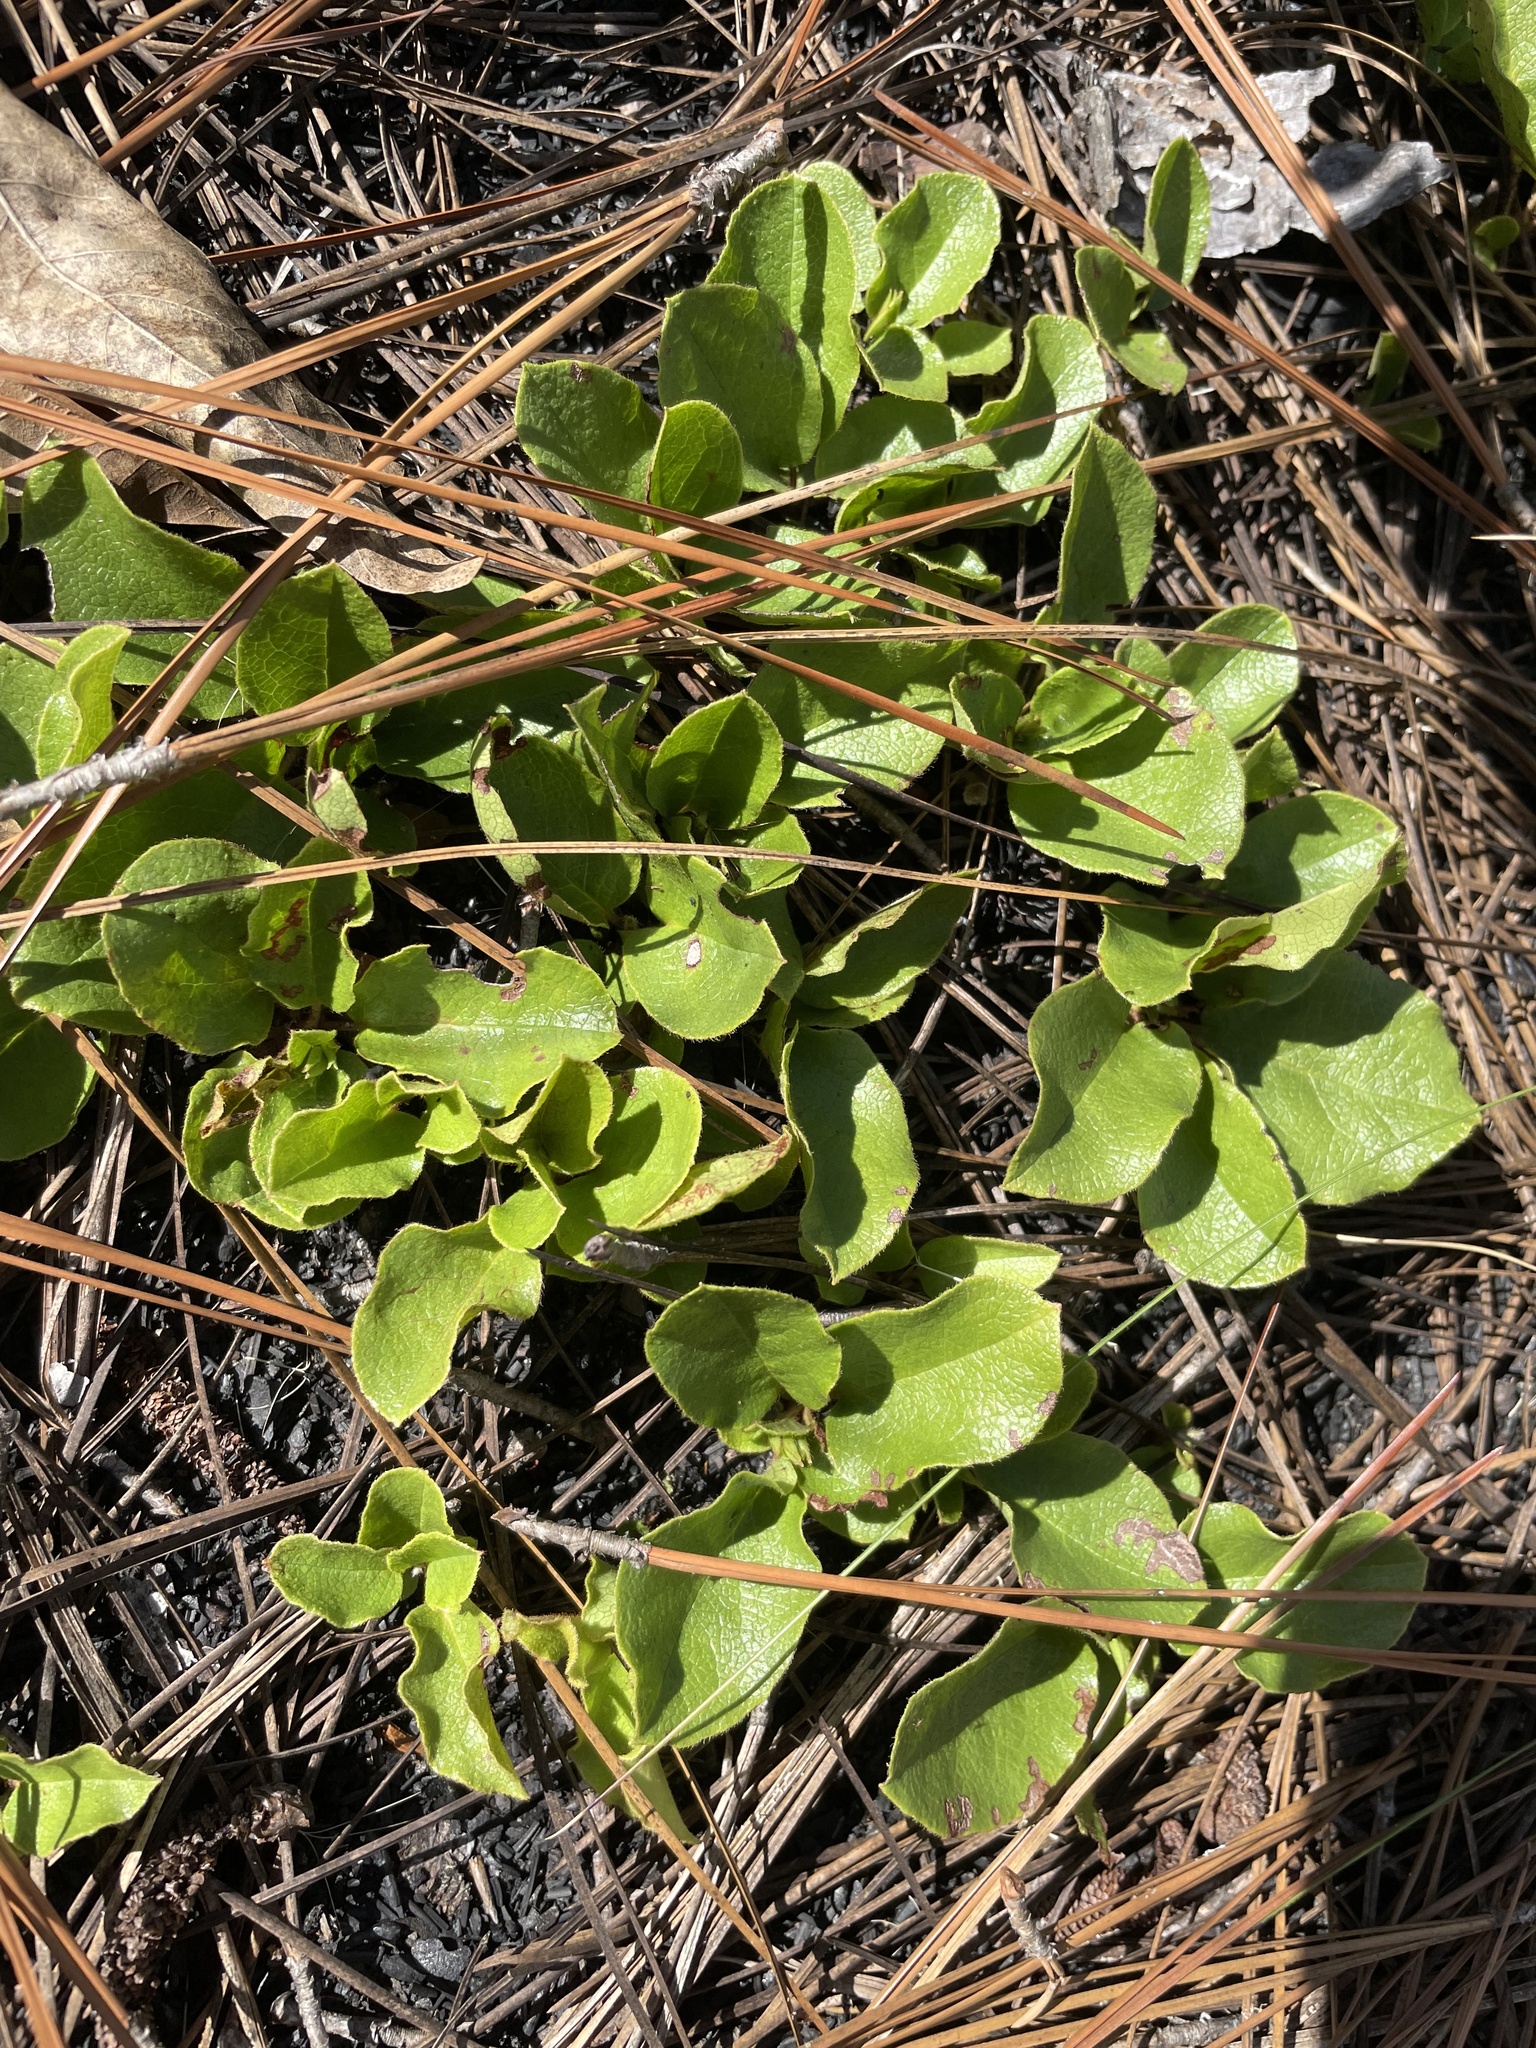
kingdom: Plantae
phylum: Tracheophyta
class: Magnoliopsida
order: Ericales
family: Ericaceae
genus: Epigaea
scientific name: Epigaea repens
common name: Gravelroot
